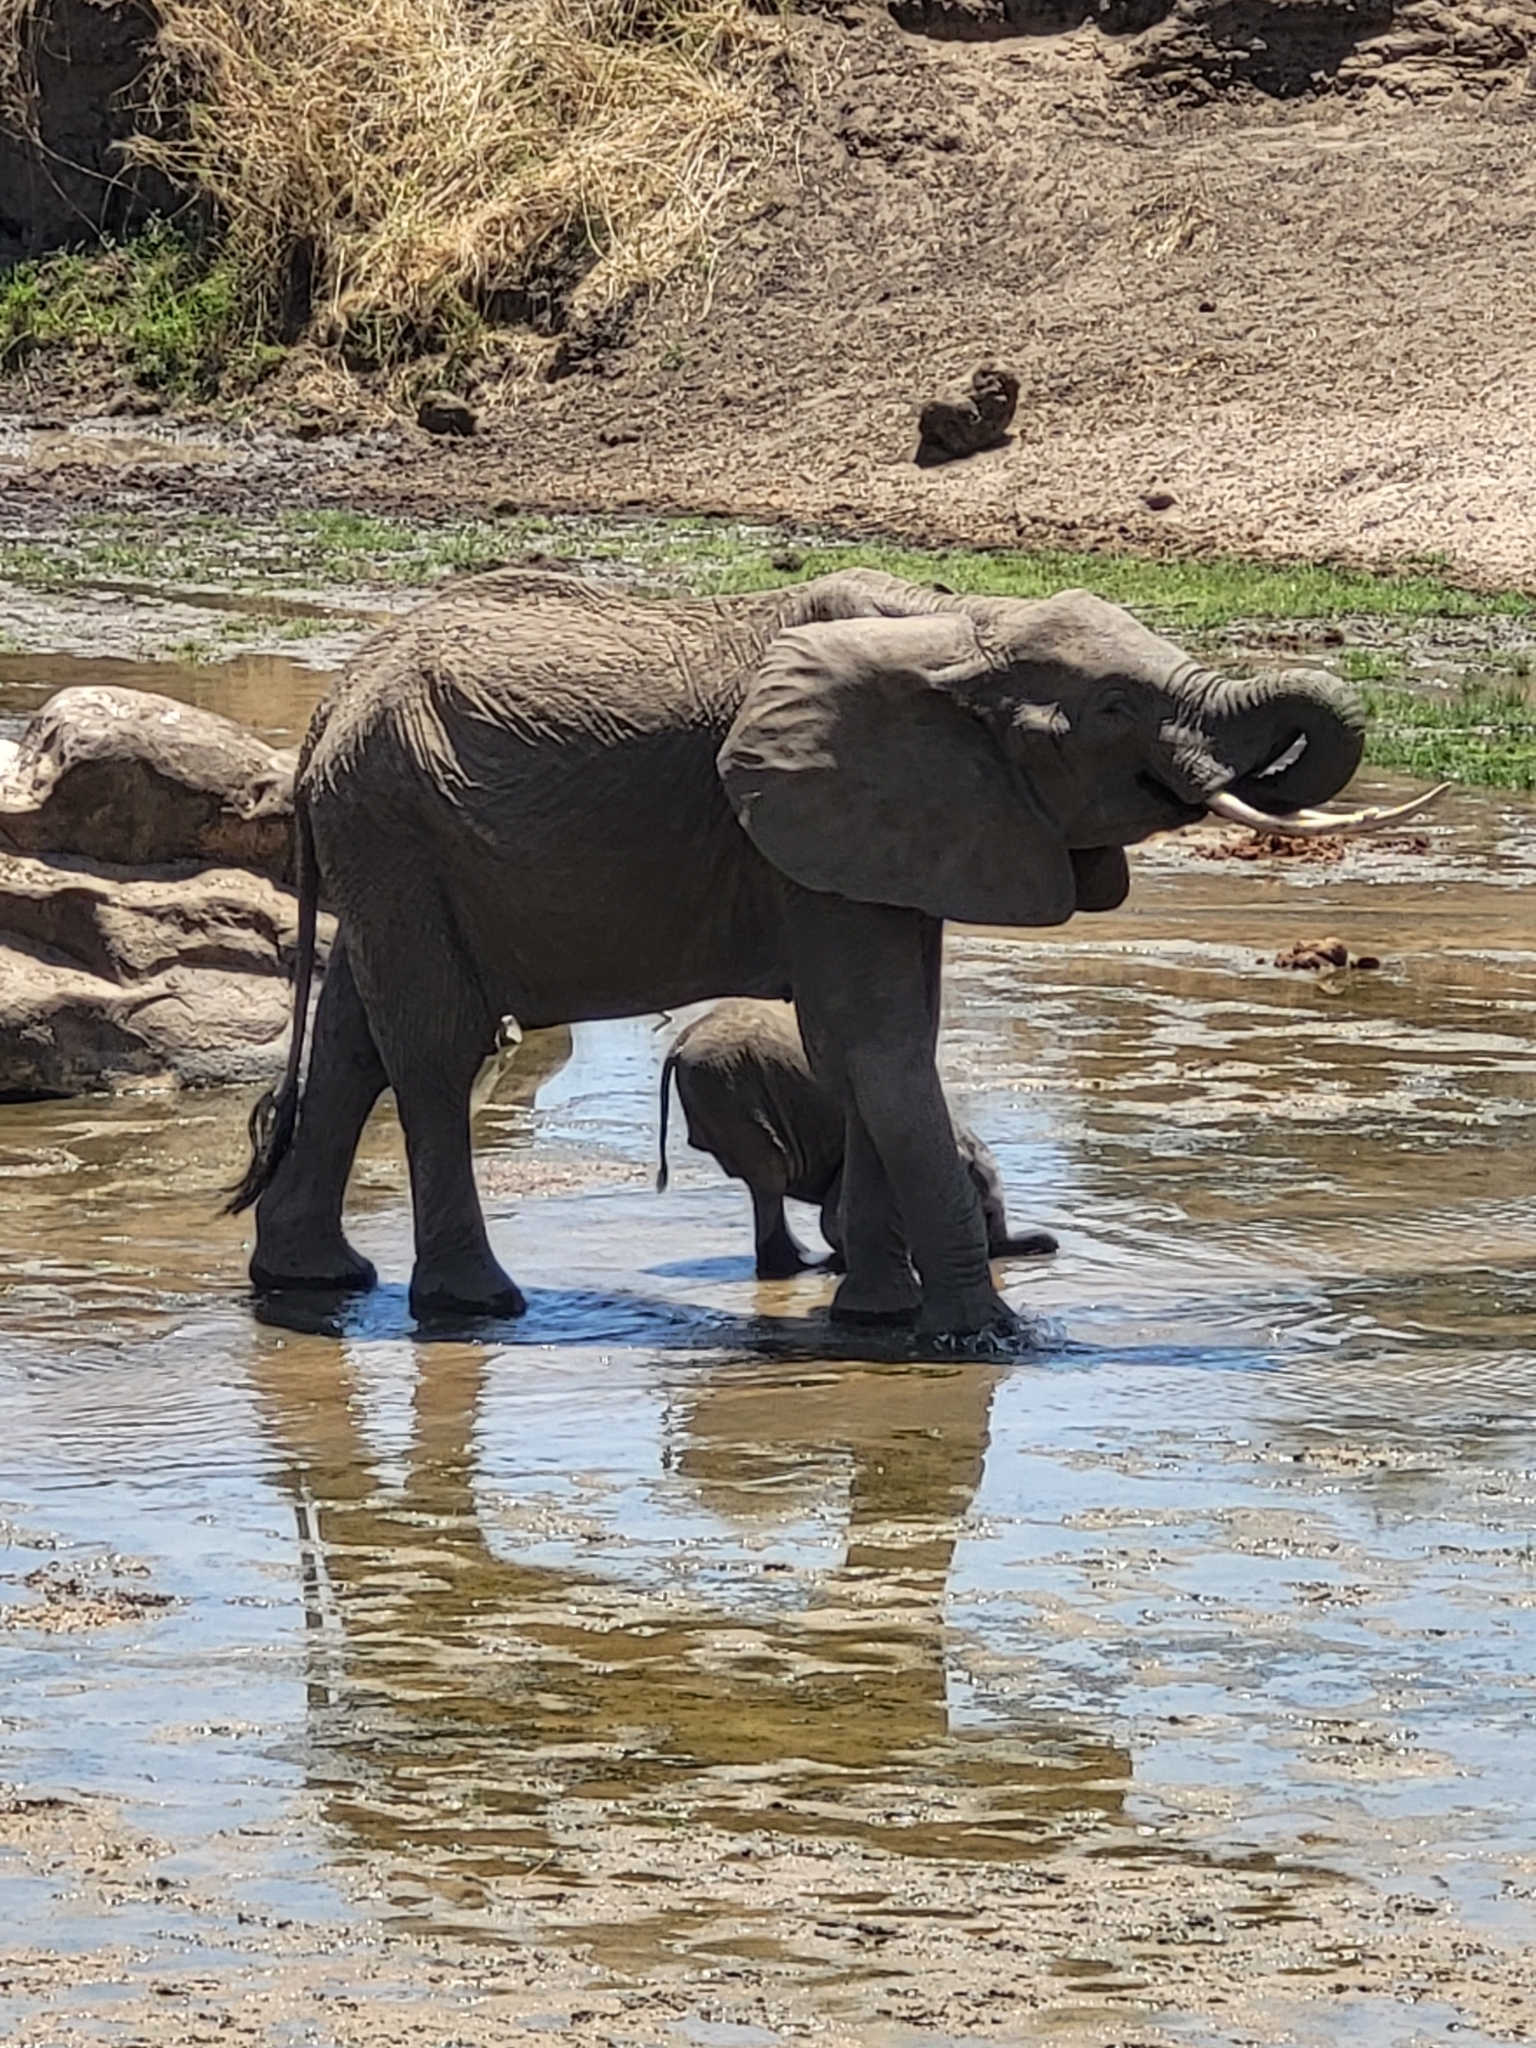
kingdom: Animalia
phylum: Chordata
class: Mammalia
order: Proboscidea
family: Elephantidae
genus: Loxodonta
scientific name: Loxodonta africana
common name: African elephant
